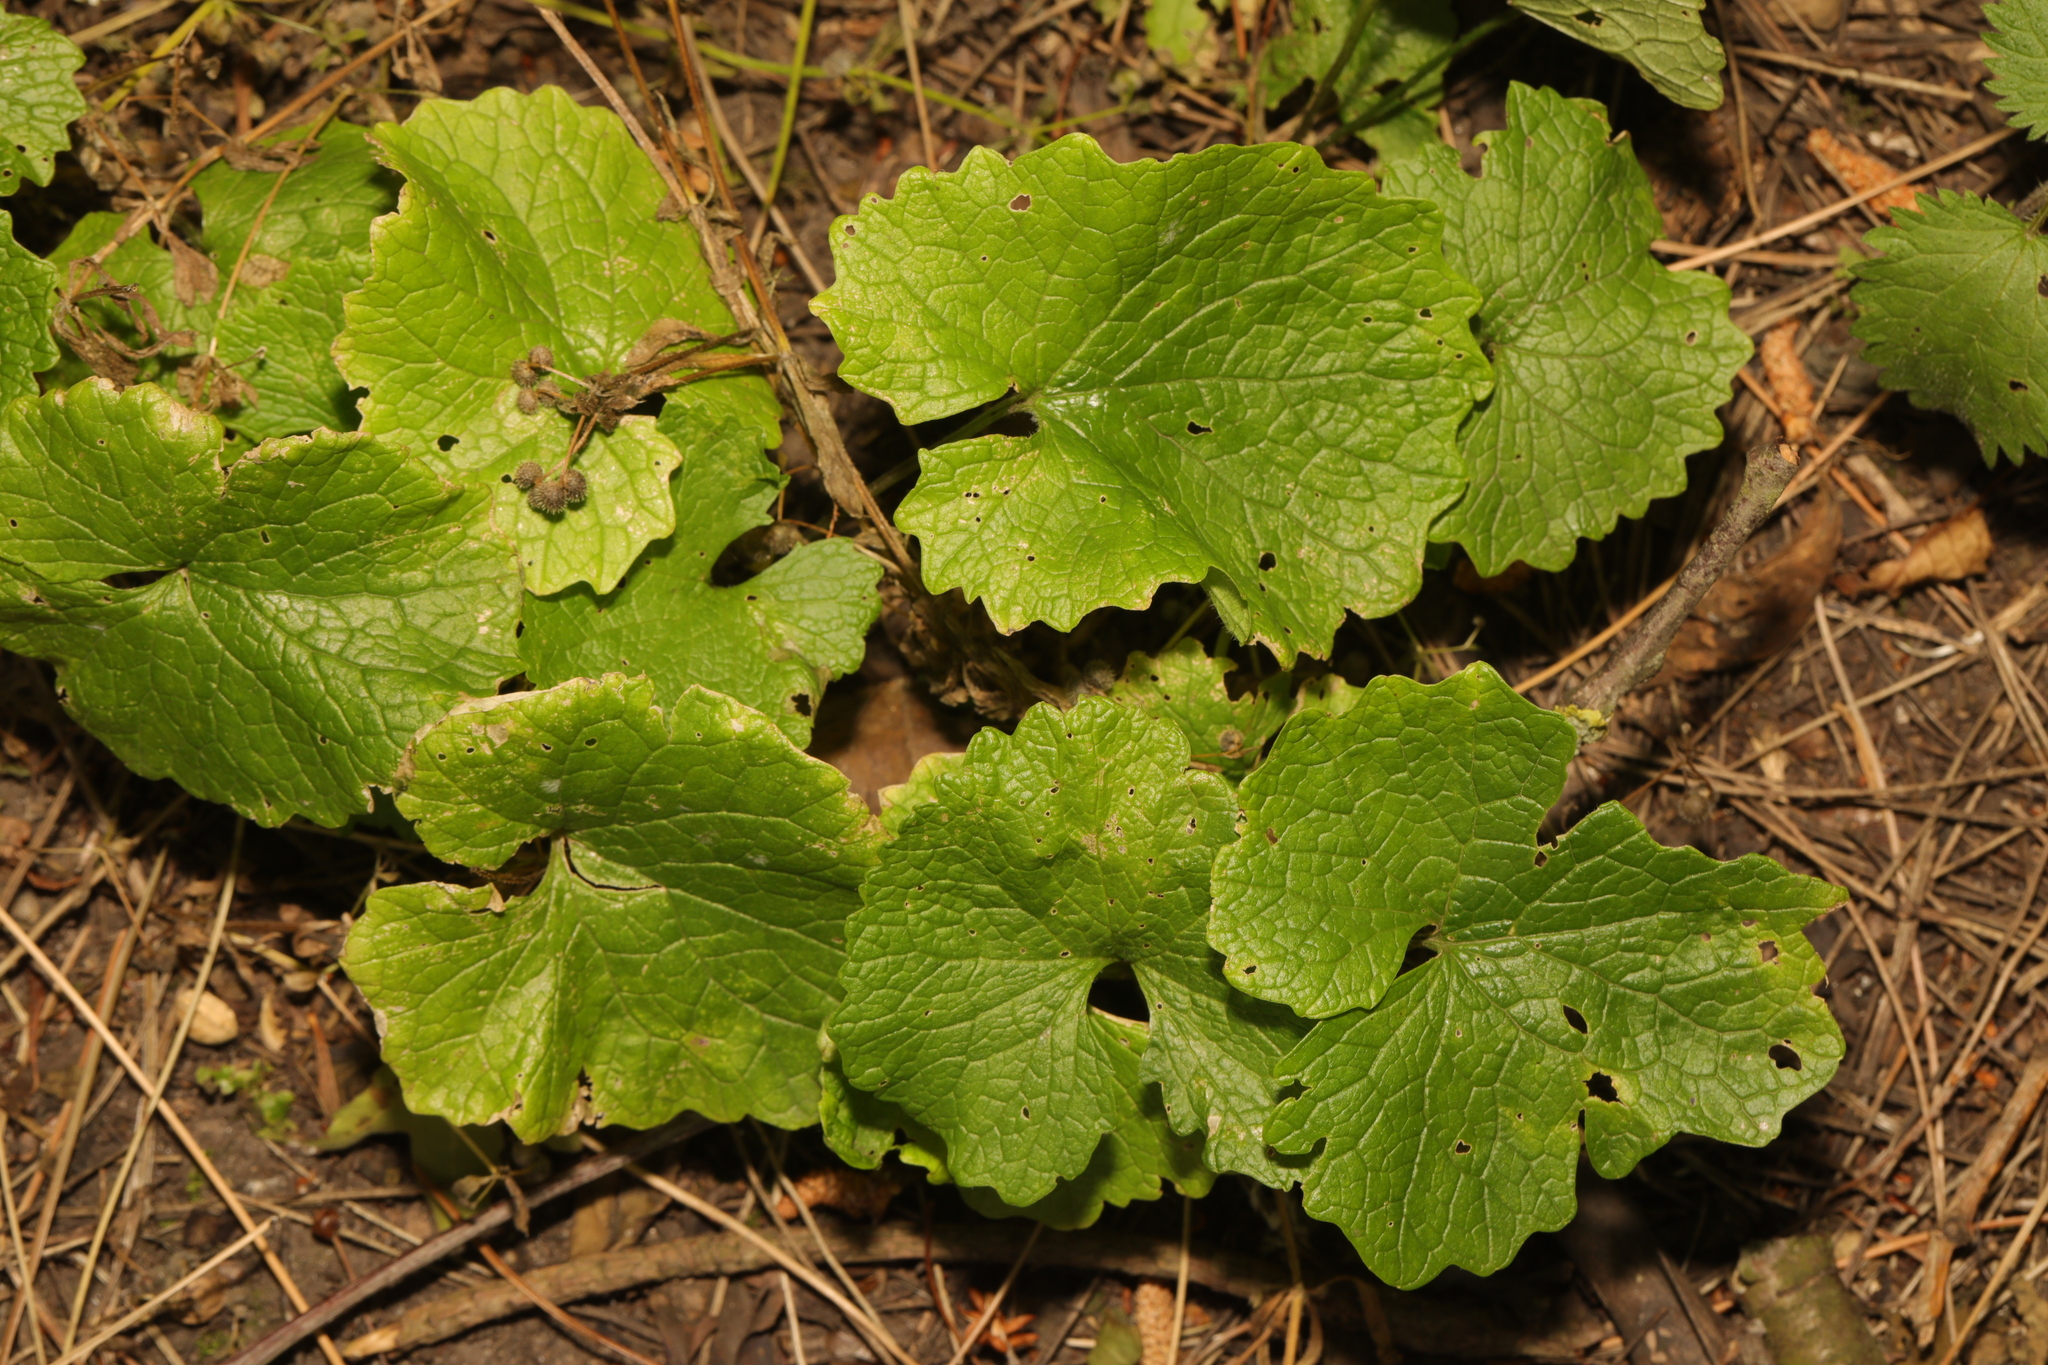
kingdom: Plantae
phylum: Tracheophyta
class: Magnoliopsida
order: Brassicales
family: Brassicaceae
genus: Alliaria
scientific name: Alliaria petiolata
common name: Garlic mustard
